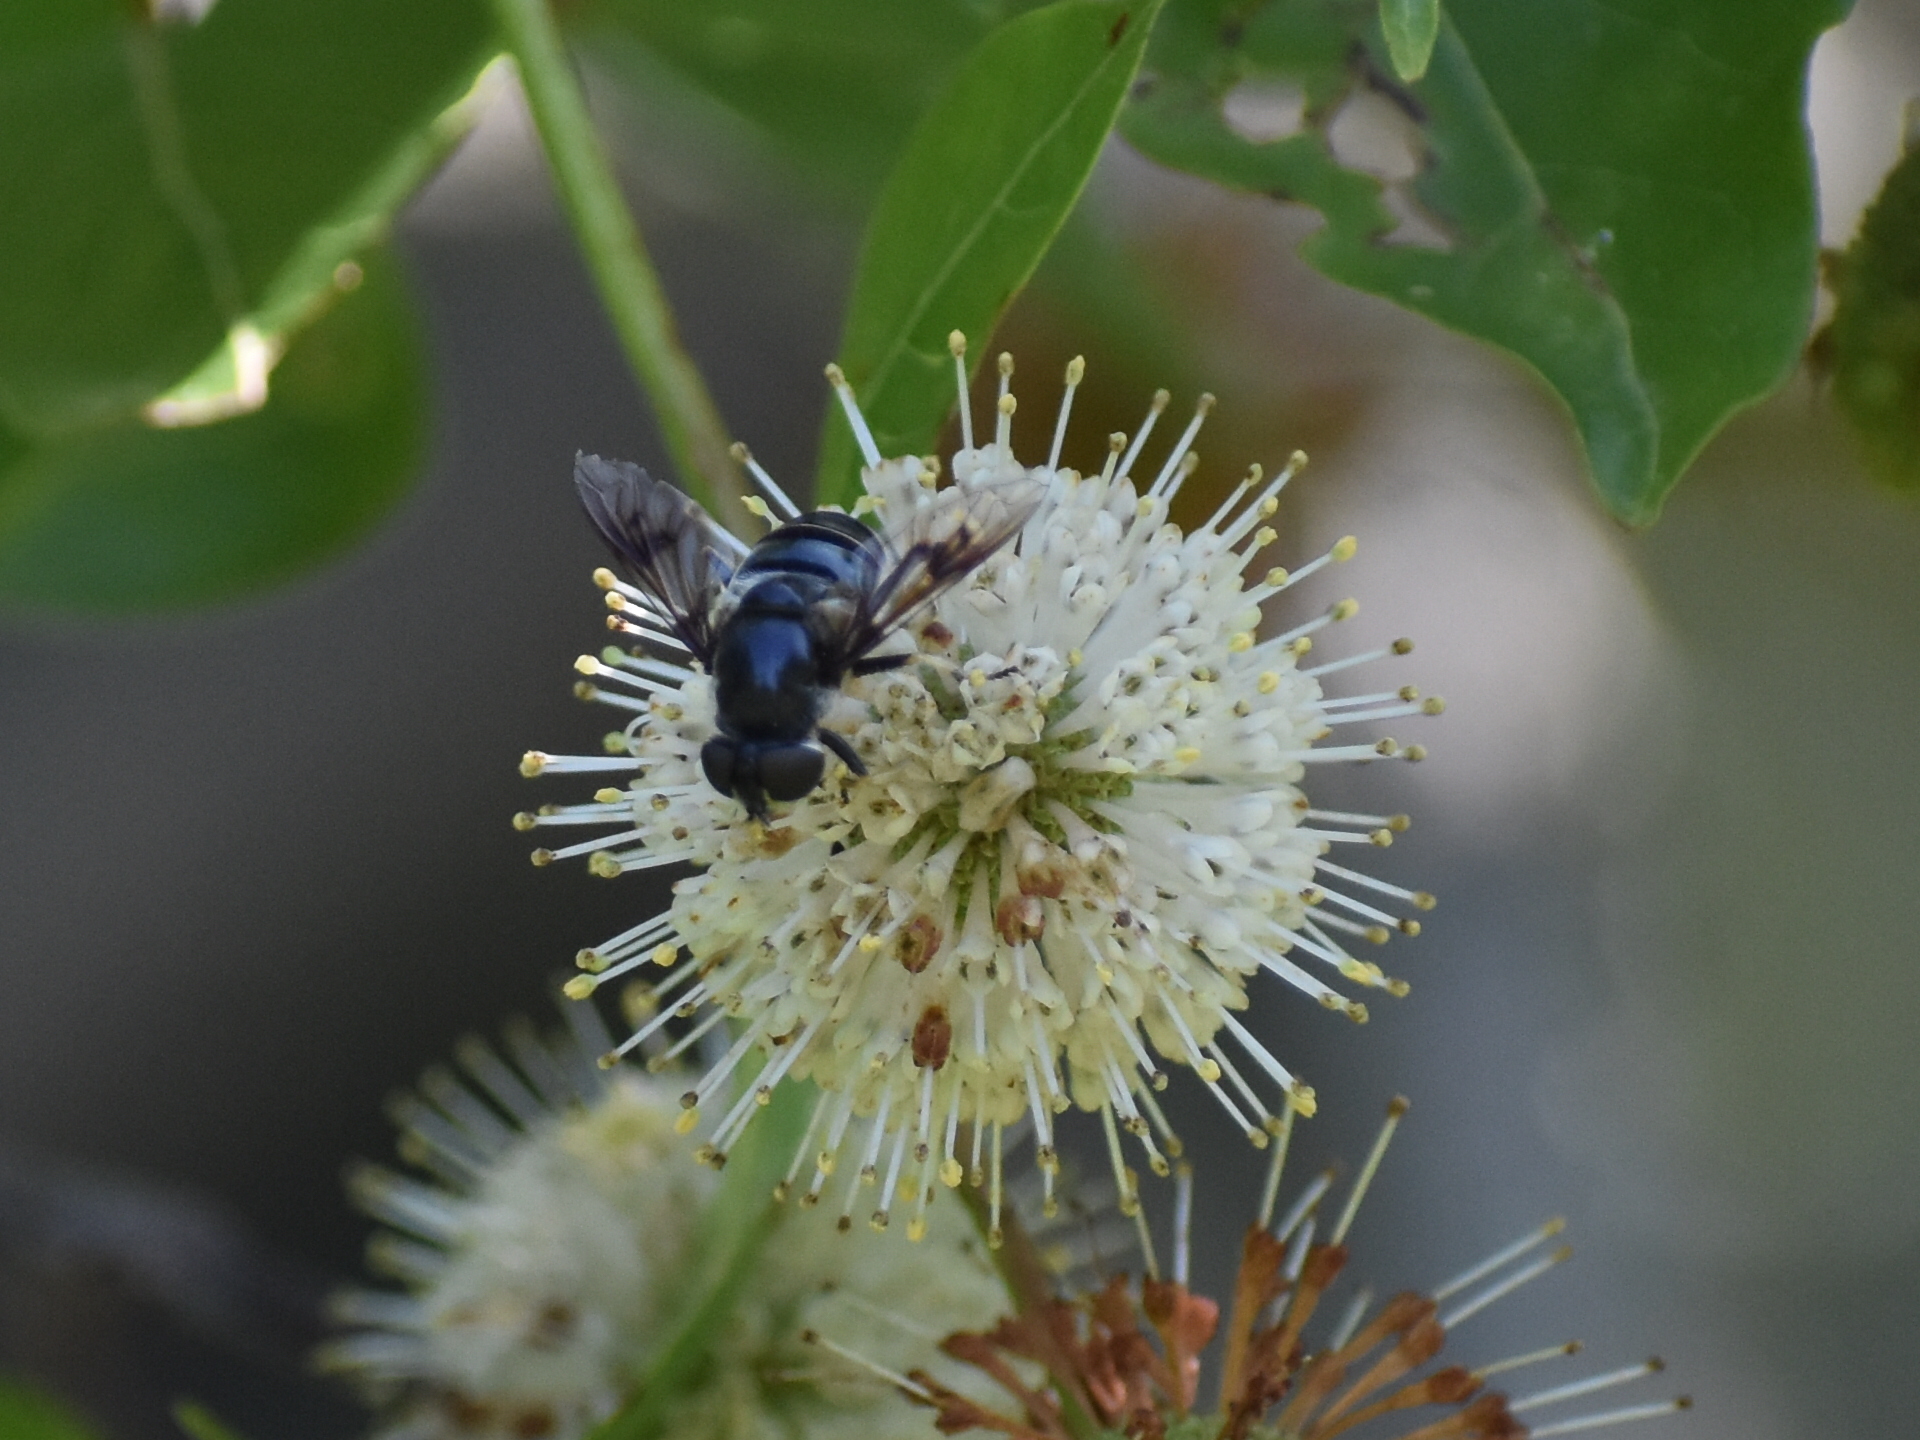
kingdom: Animalia
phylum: Arthropoda
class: Insecta
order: Diptera
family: Syrphidae
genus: Eristalis
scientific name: Eristalis saxorum
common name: Blue-polished drone fly
